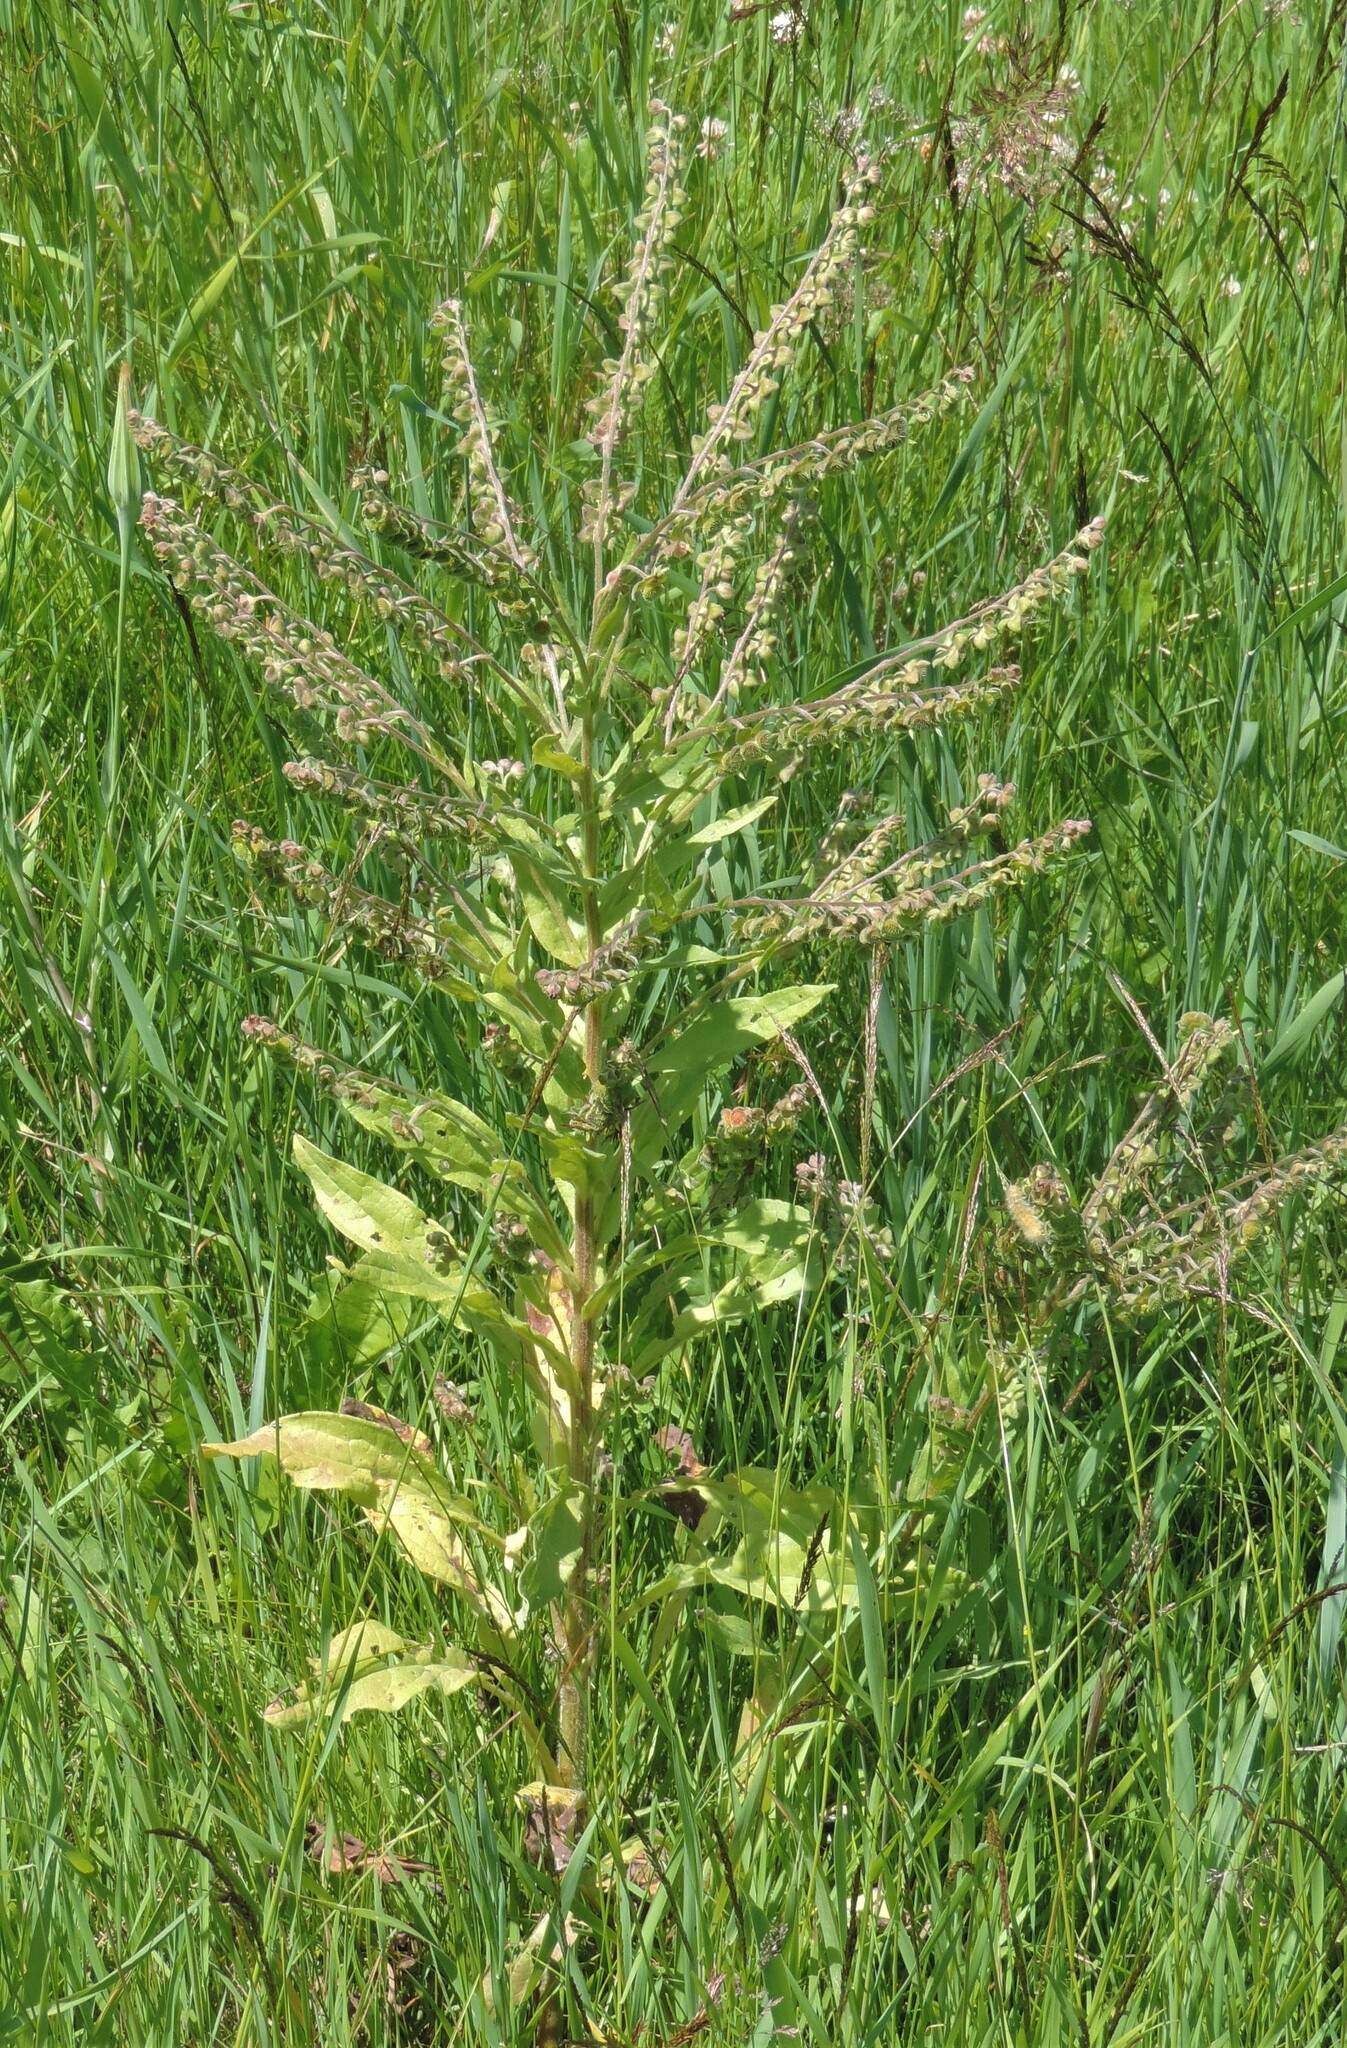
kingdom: Plantae
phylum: Tracheophyta
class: Magnoliopsida
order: Boraginales
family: Boraginaceae
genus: Cynoglossum
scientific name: Cynoglossum officinale
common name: Hound's-tongue
